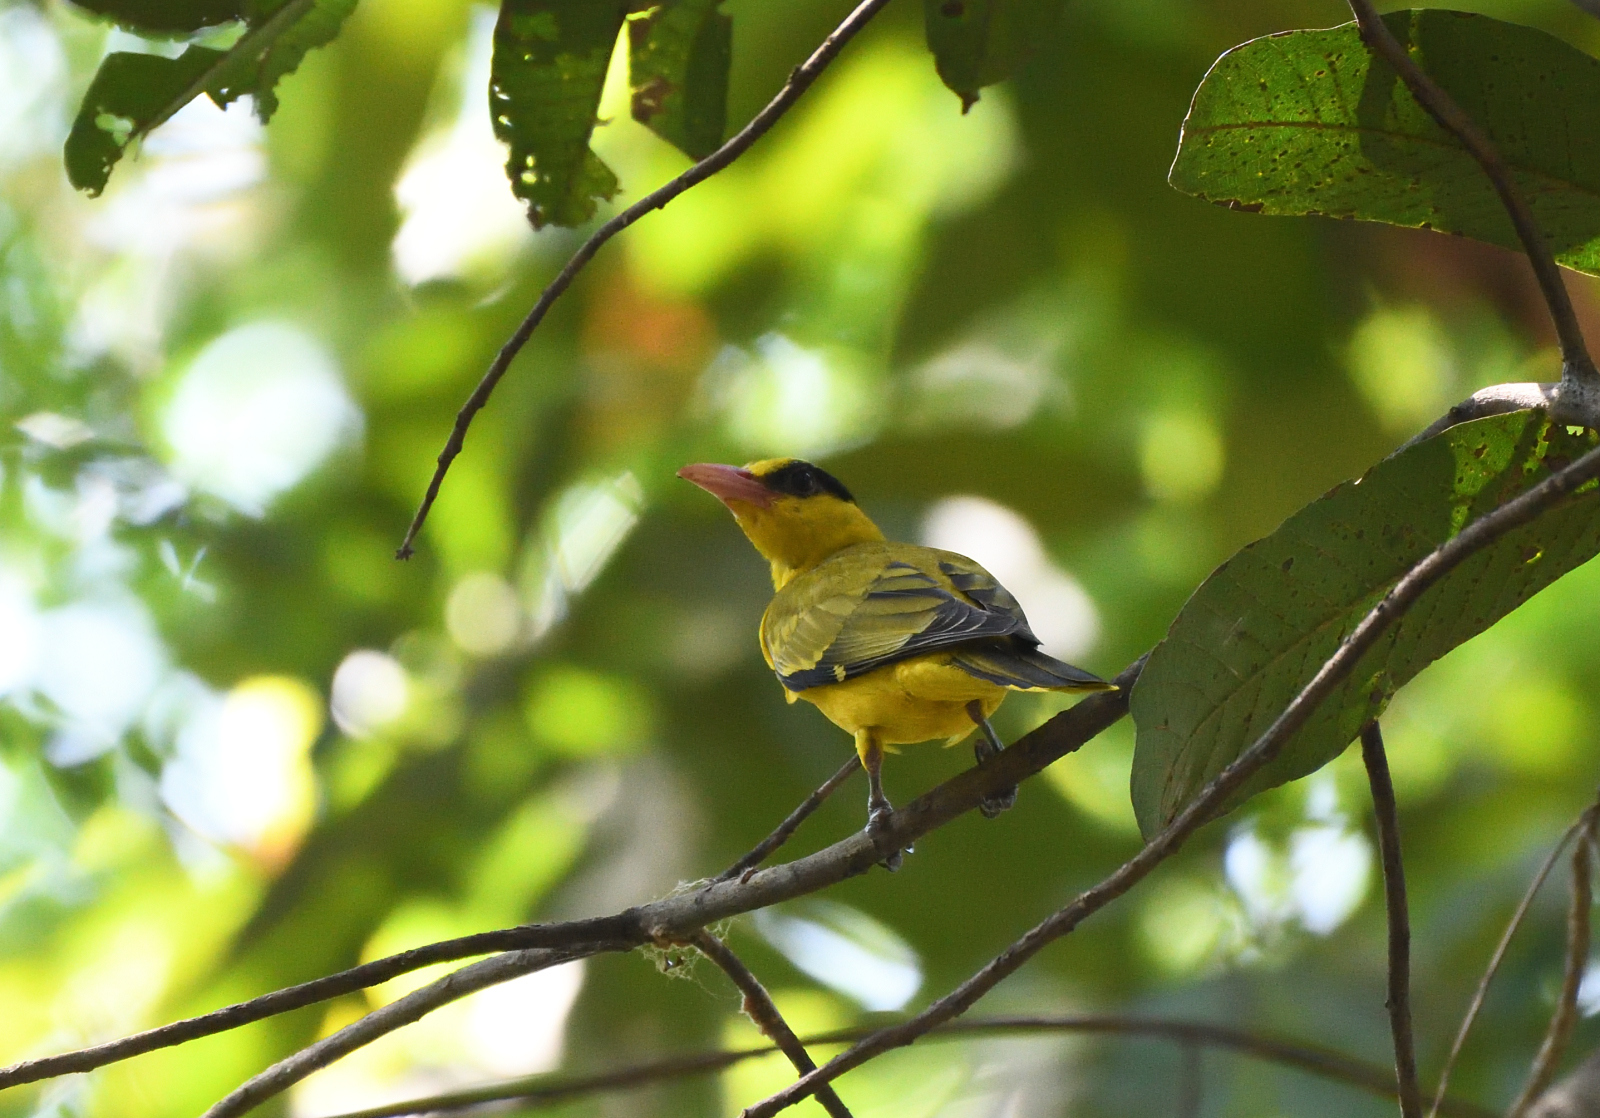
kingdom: Animalia
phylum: Chordata
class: Aves
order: Passeriformes
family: Oriolidae
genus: Oriolus
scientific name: Oriolus chinensis
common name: Black-naped oriole
